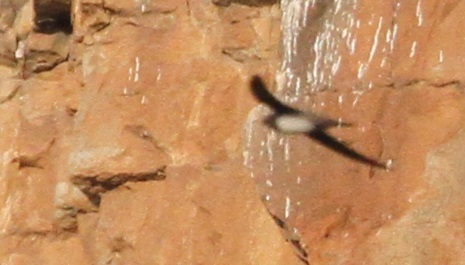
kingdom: Animalia
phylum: Chordata
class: Aves
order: Apodiformes
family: Apodidae
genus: Tachymarptis
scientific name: Tachymarptis melba
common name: Alpine swift
